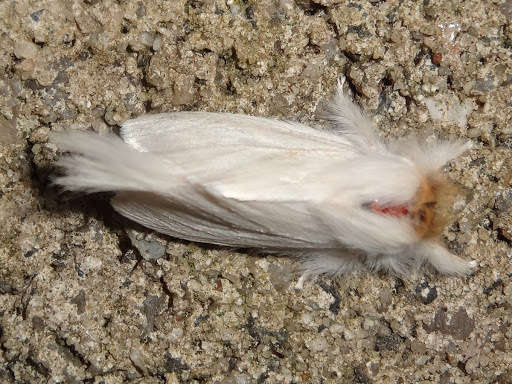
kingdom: Animalia
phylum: Arthropoda
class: Insecta
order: Lepidoptera
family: Notodontidae
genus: Trichiocercus
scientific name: Trichiocercus sparshalli
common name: Long-tailed satin
